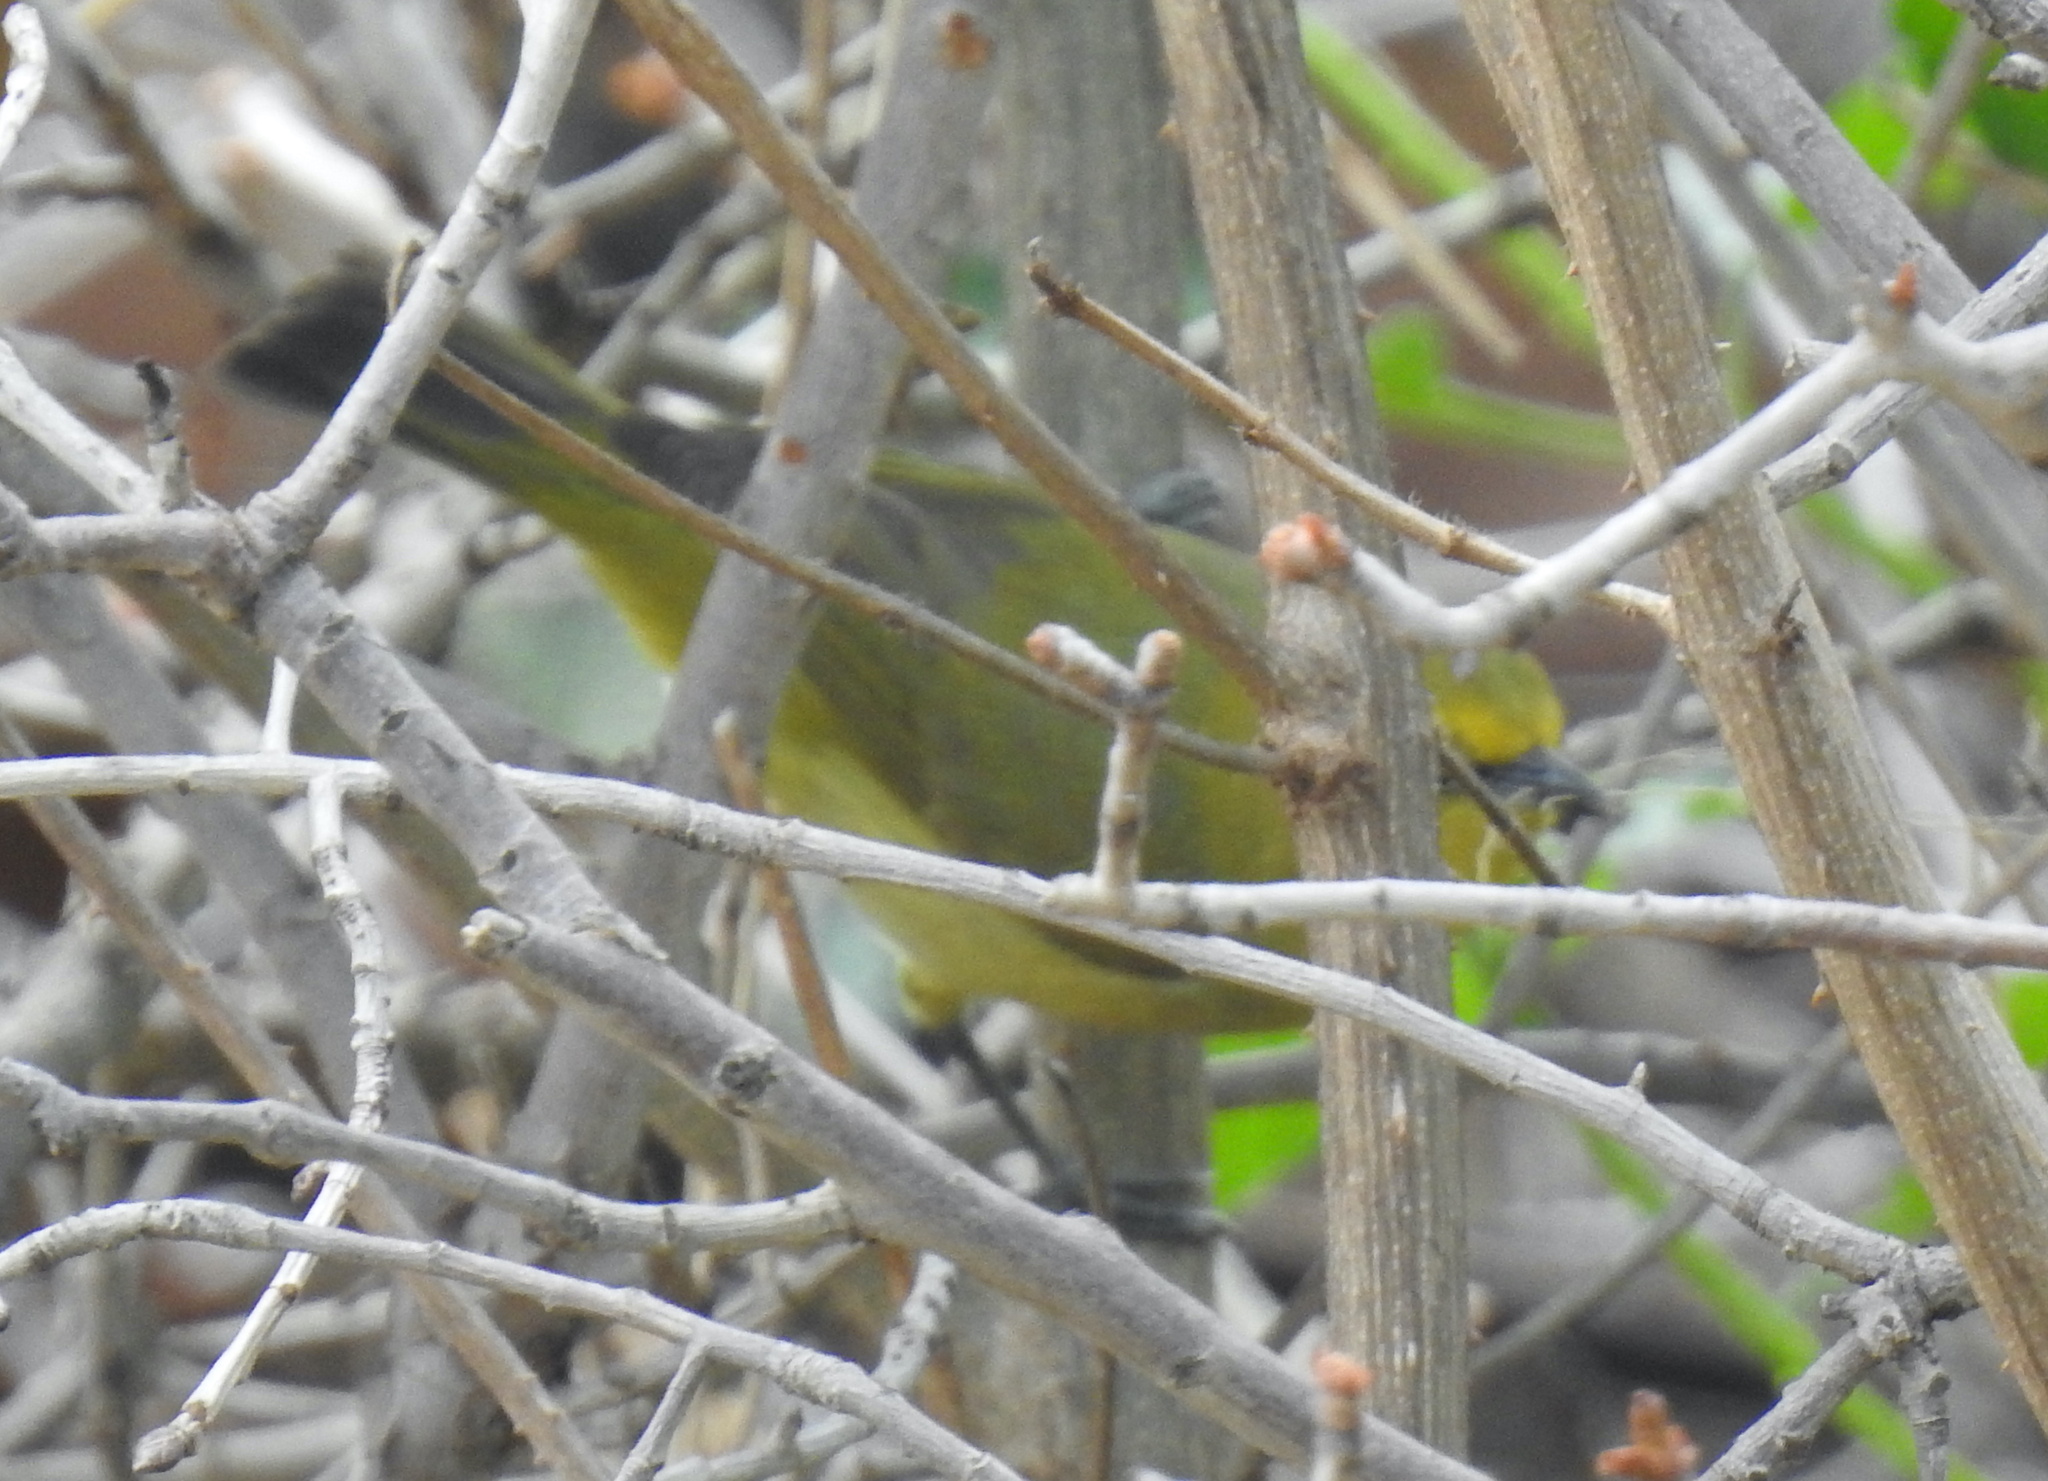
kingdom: Animalia
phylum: Chordata
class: Aves
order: Passeriformes
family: Zosteropidae
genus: Zosterops
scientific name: Zosterops virens
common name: Cape white-eye
